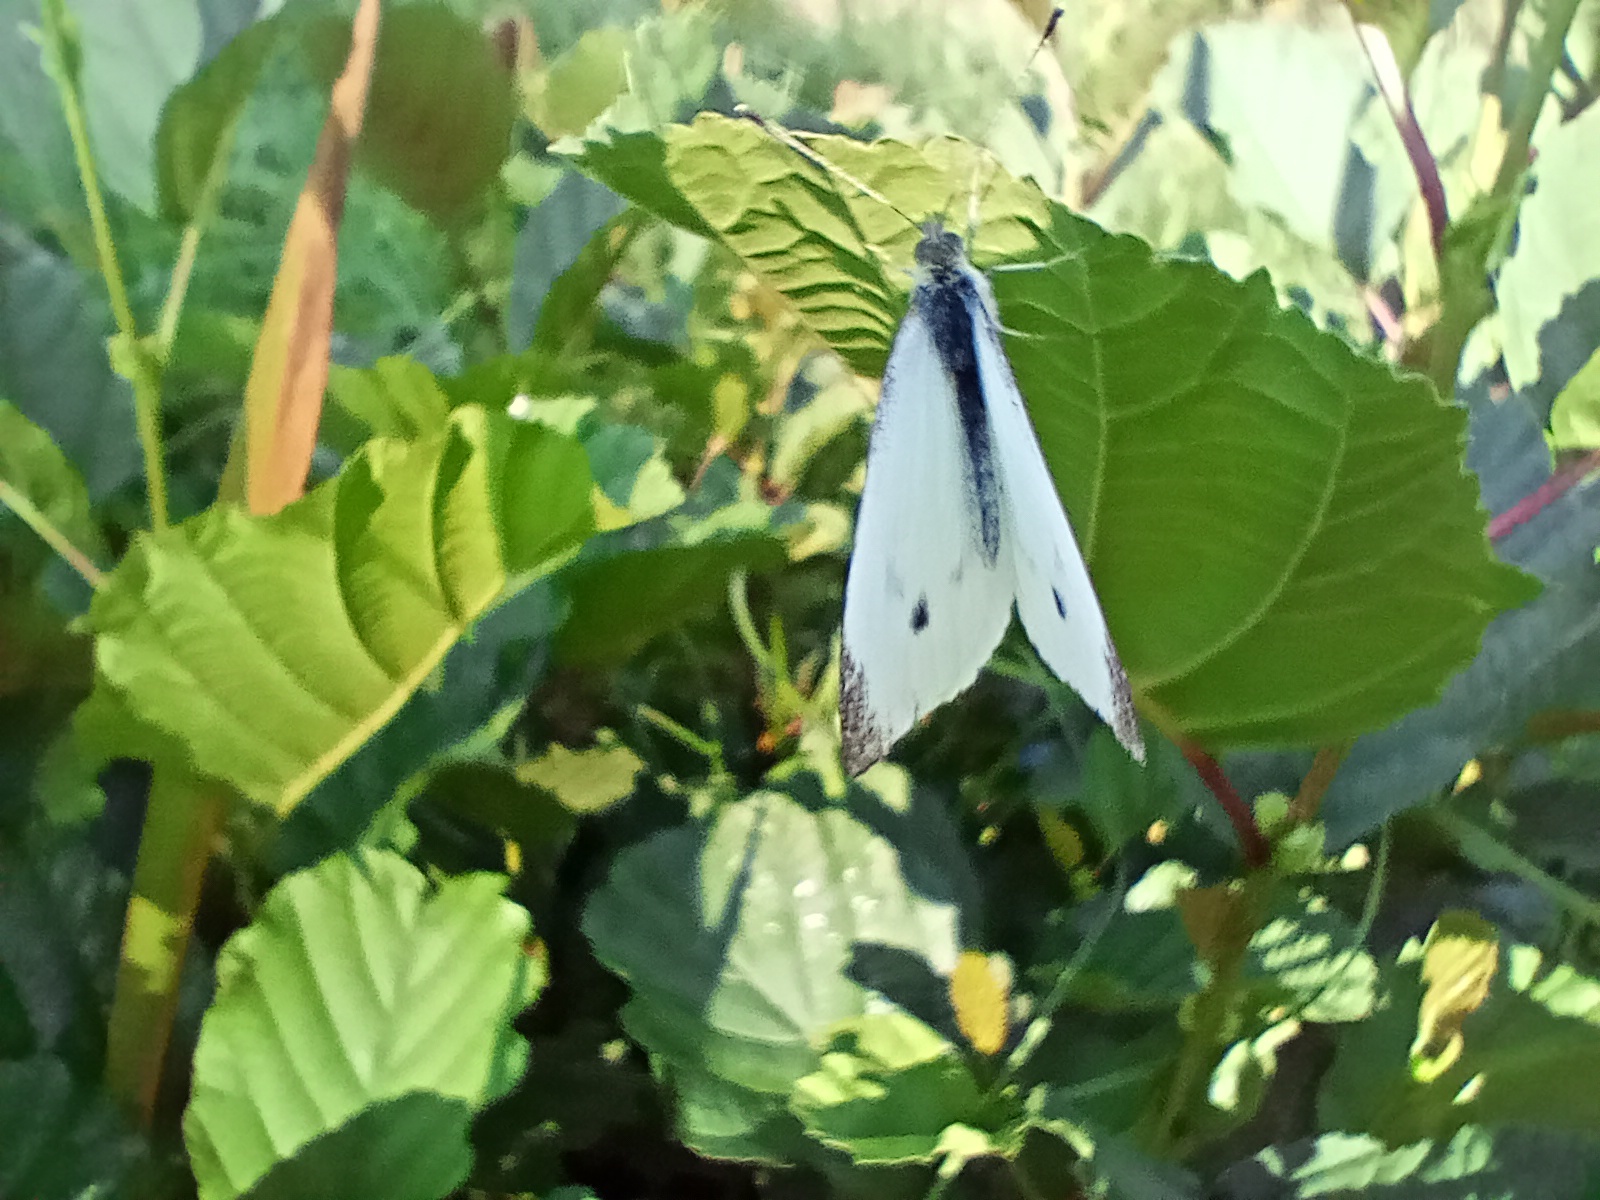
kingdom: Animalia
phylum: Arthropoda
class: Insecta
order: Lepidoptera
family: Pieridae
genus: Pieris
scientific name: Pieris rapae
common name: Small white
